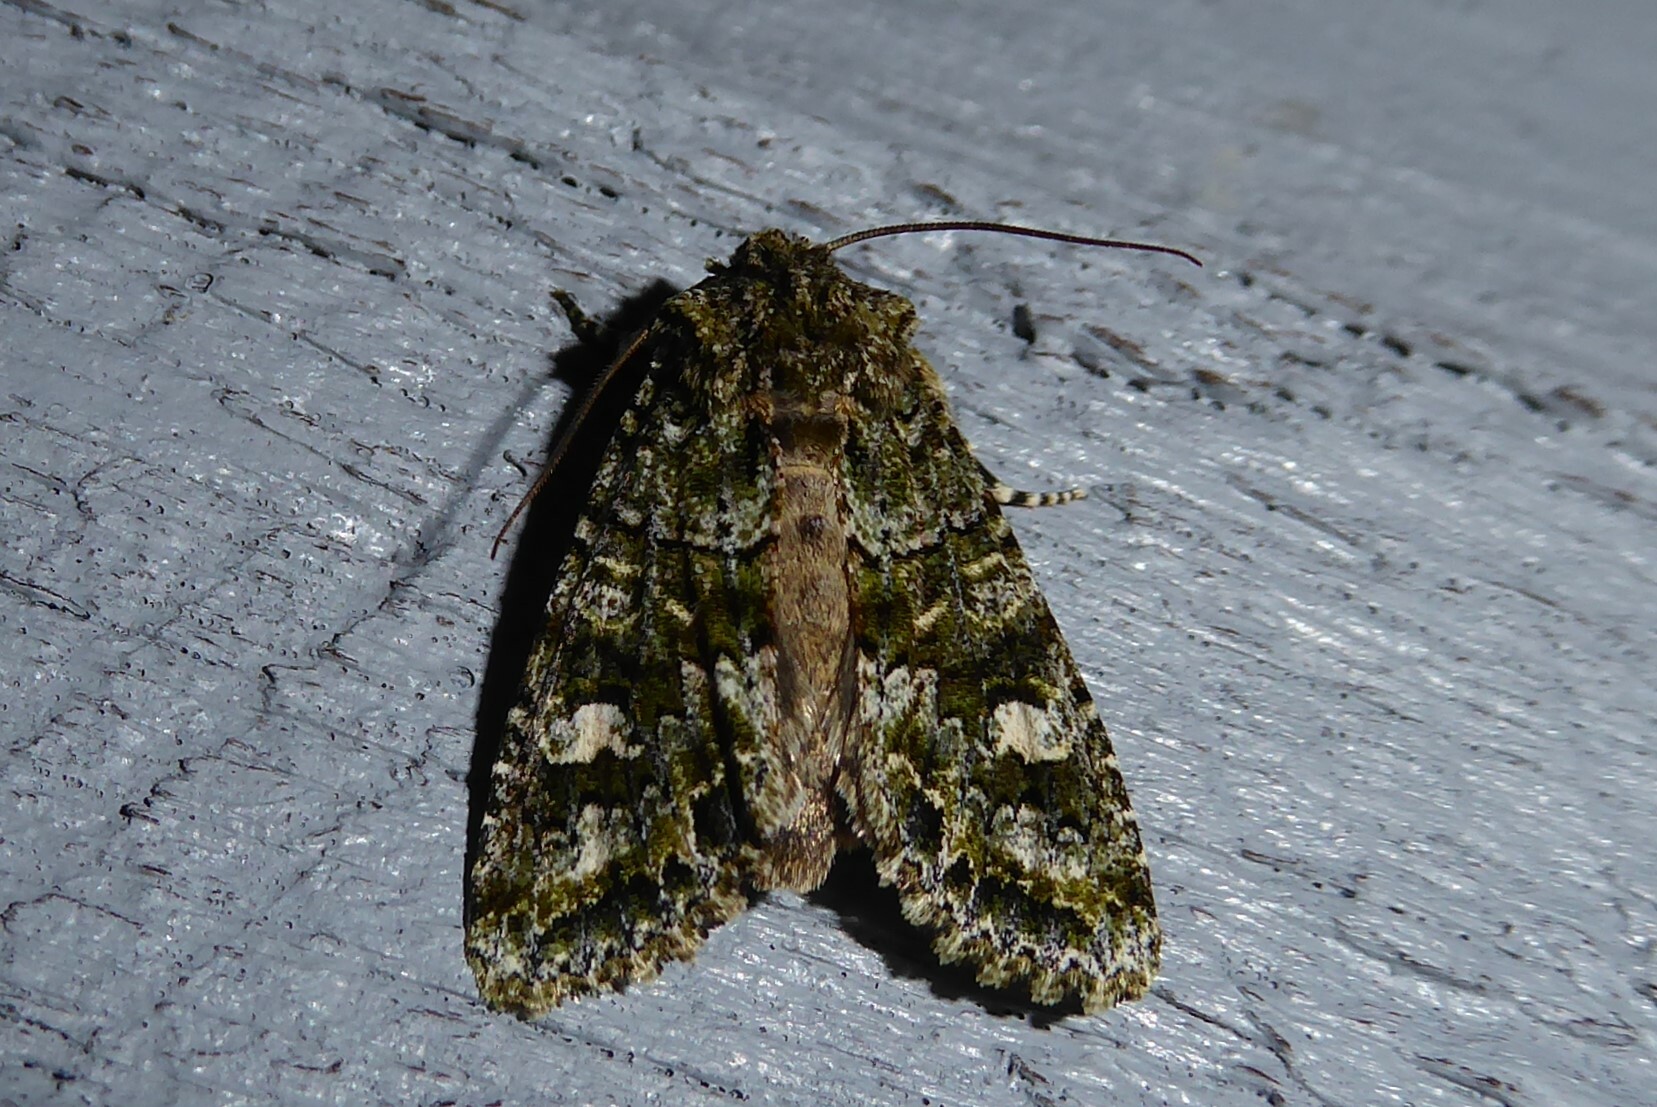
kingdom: Animalia
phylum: Arthropoda
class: Insecta
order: Lepidoptera
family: Noctuidae
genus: Ichneutica
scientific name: Ichneutica
